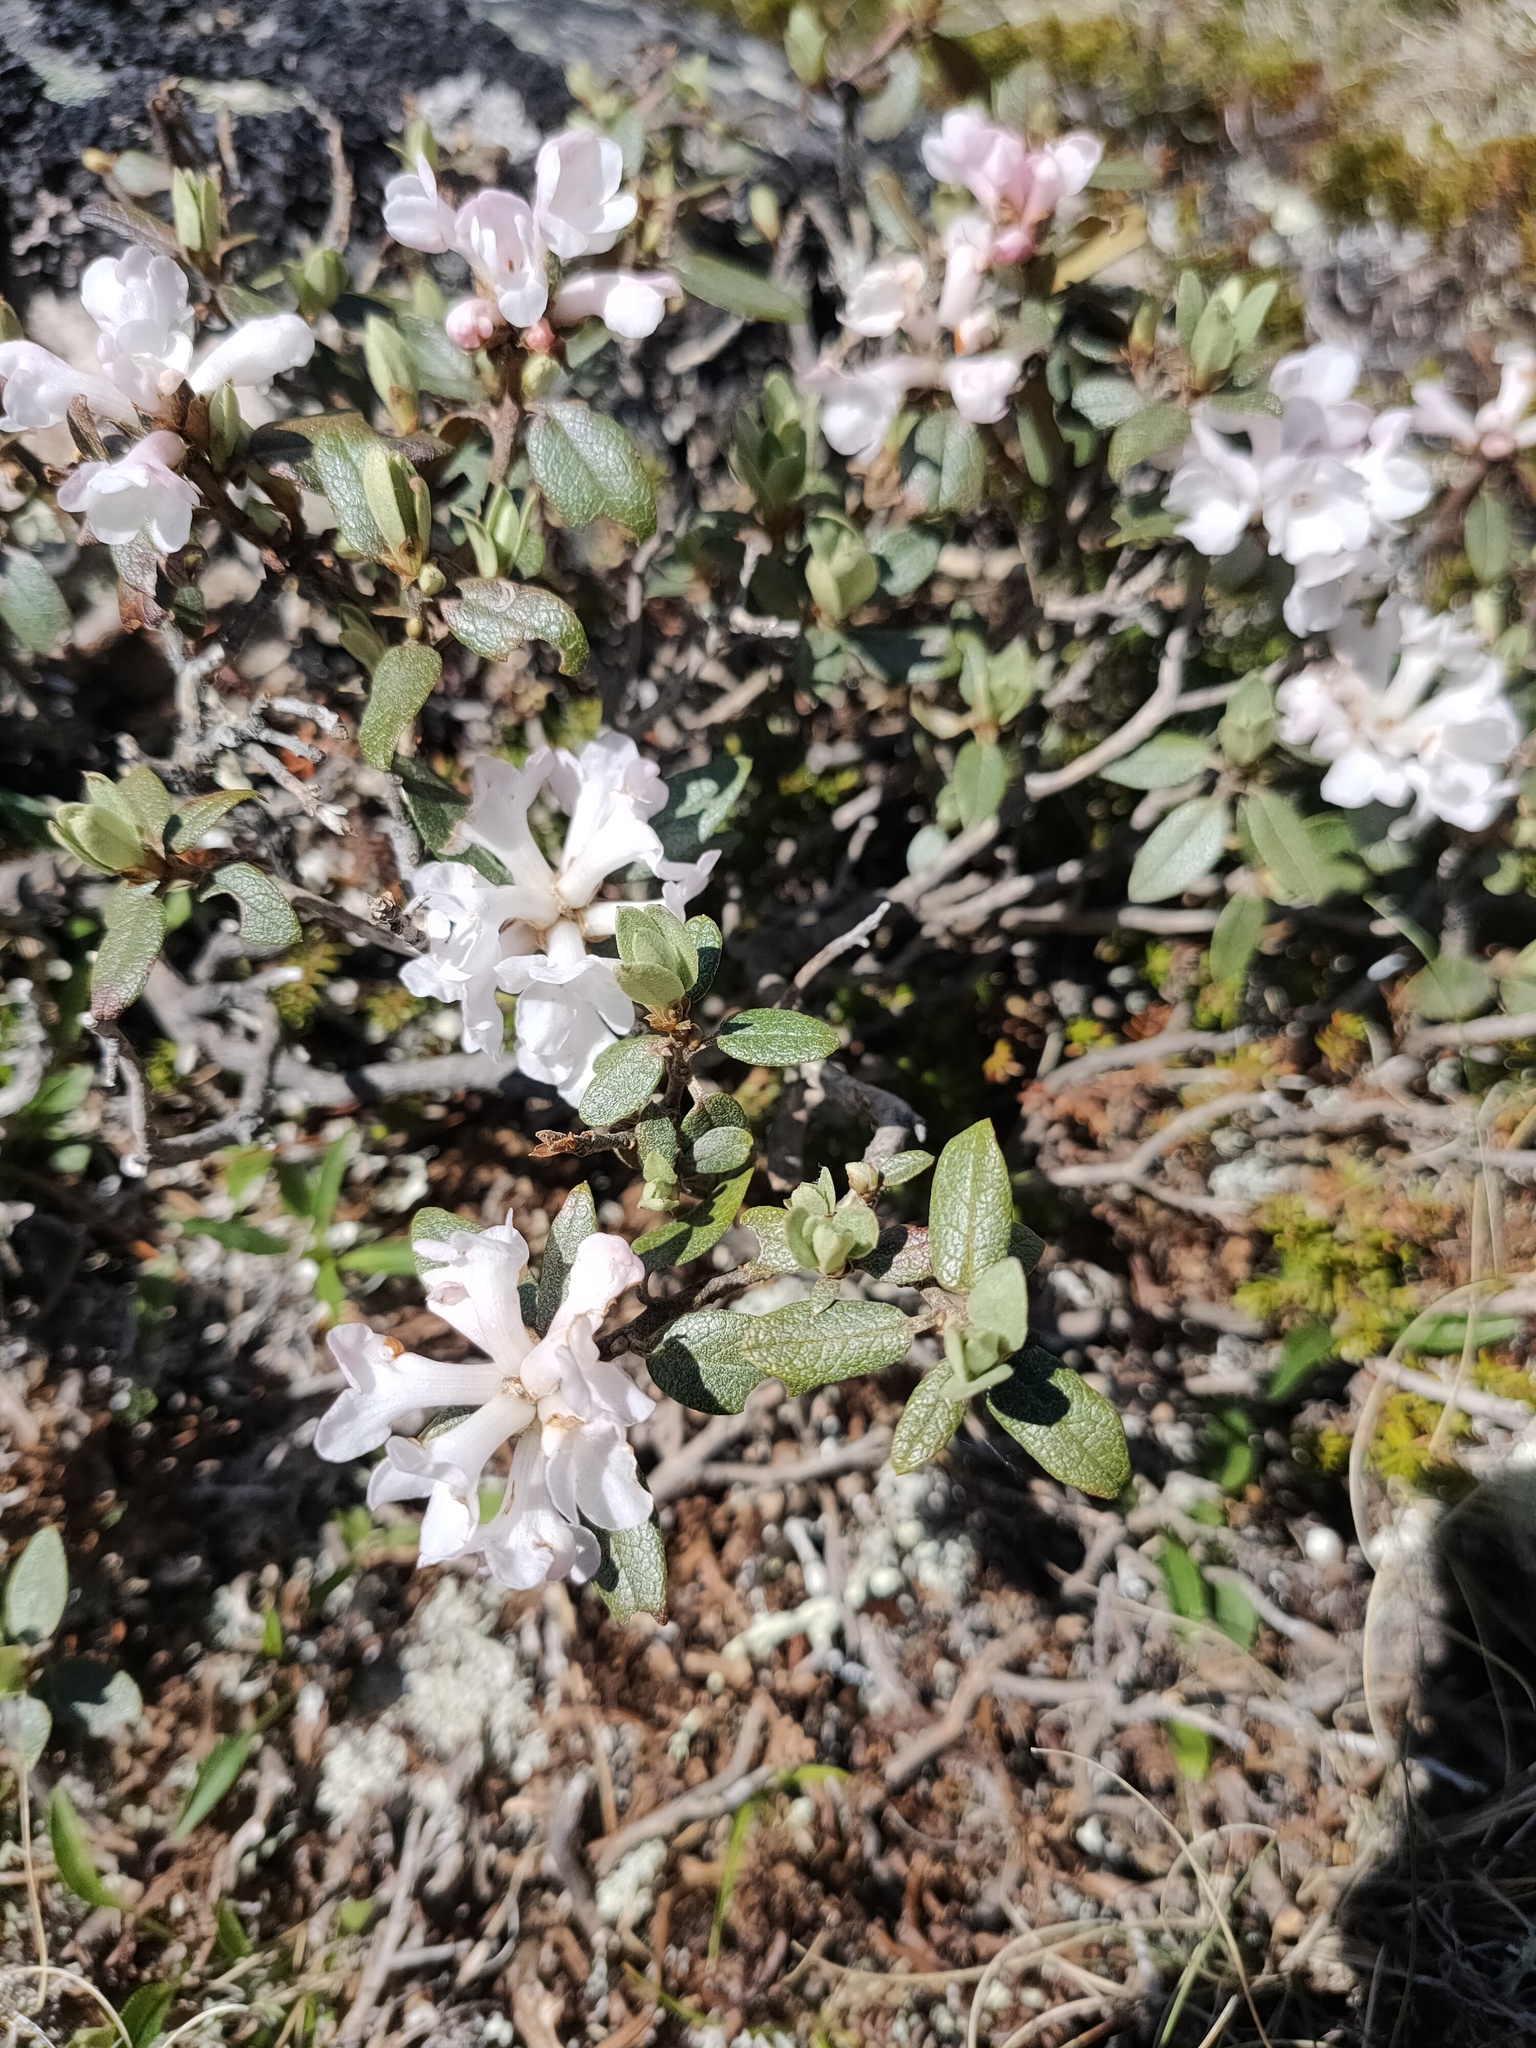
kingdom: Plantae
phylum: Tracheophyta
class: Magnoliopsida
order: Ericales
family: Ericaceae
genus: Rhododendron
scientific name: Rhododendron adamsii
